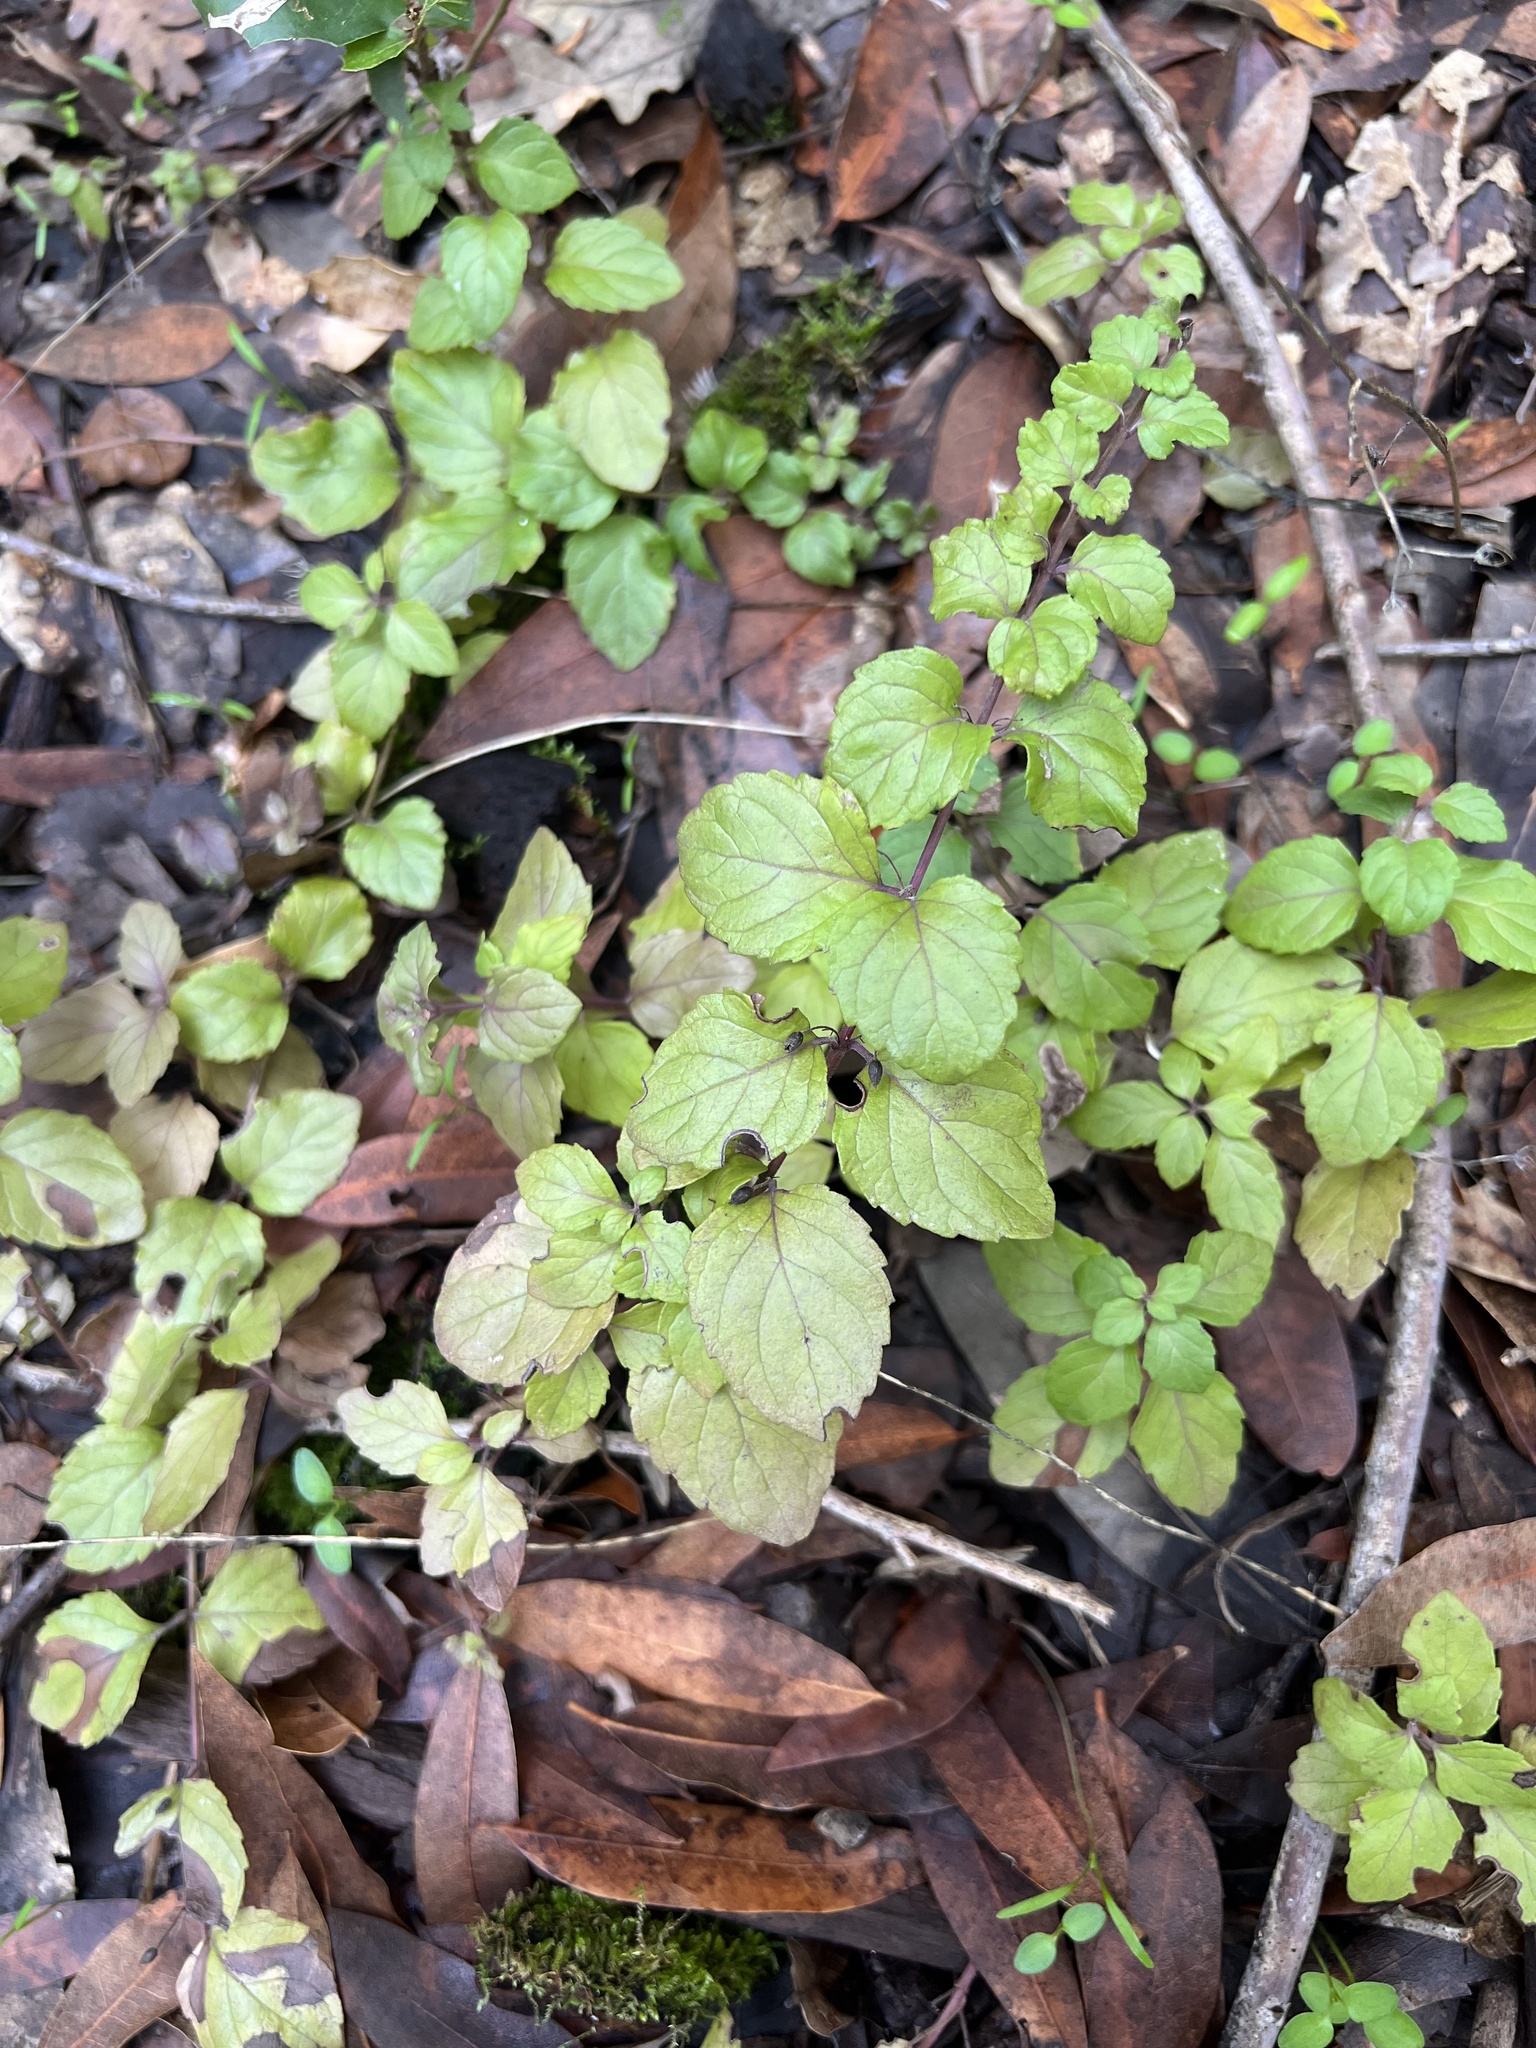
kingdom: Plantae
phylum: Tracheophyta
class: Magnoliopsida
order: Lamiales
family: Lamiaceae
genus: Micromeria
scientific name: Micromeria douglasii
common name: Yerba buena
